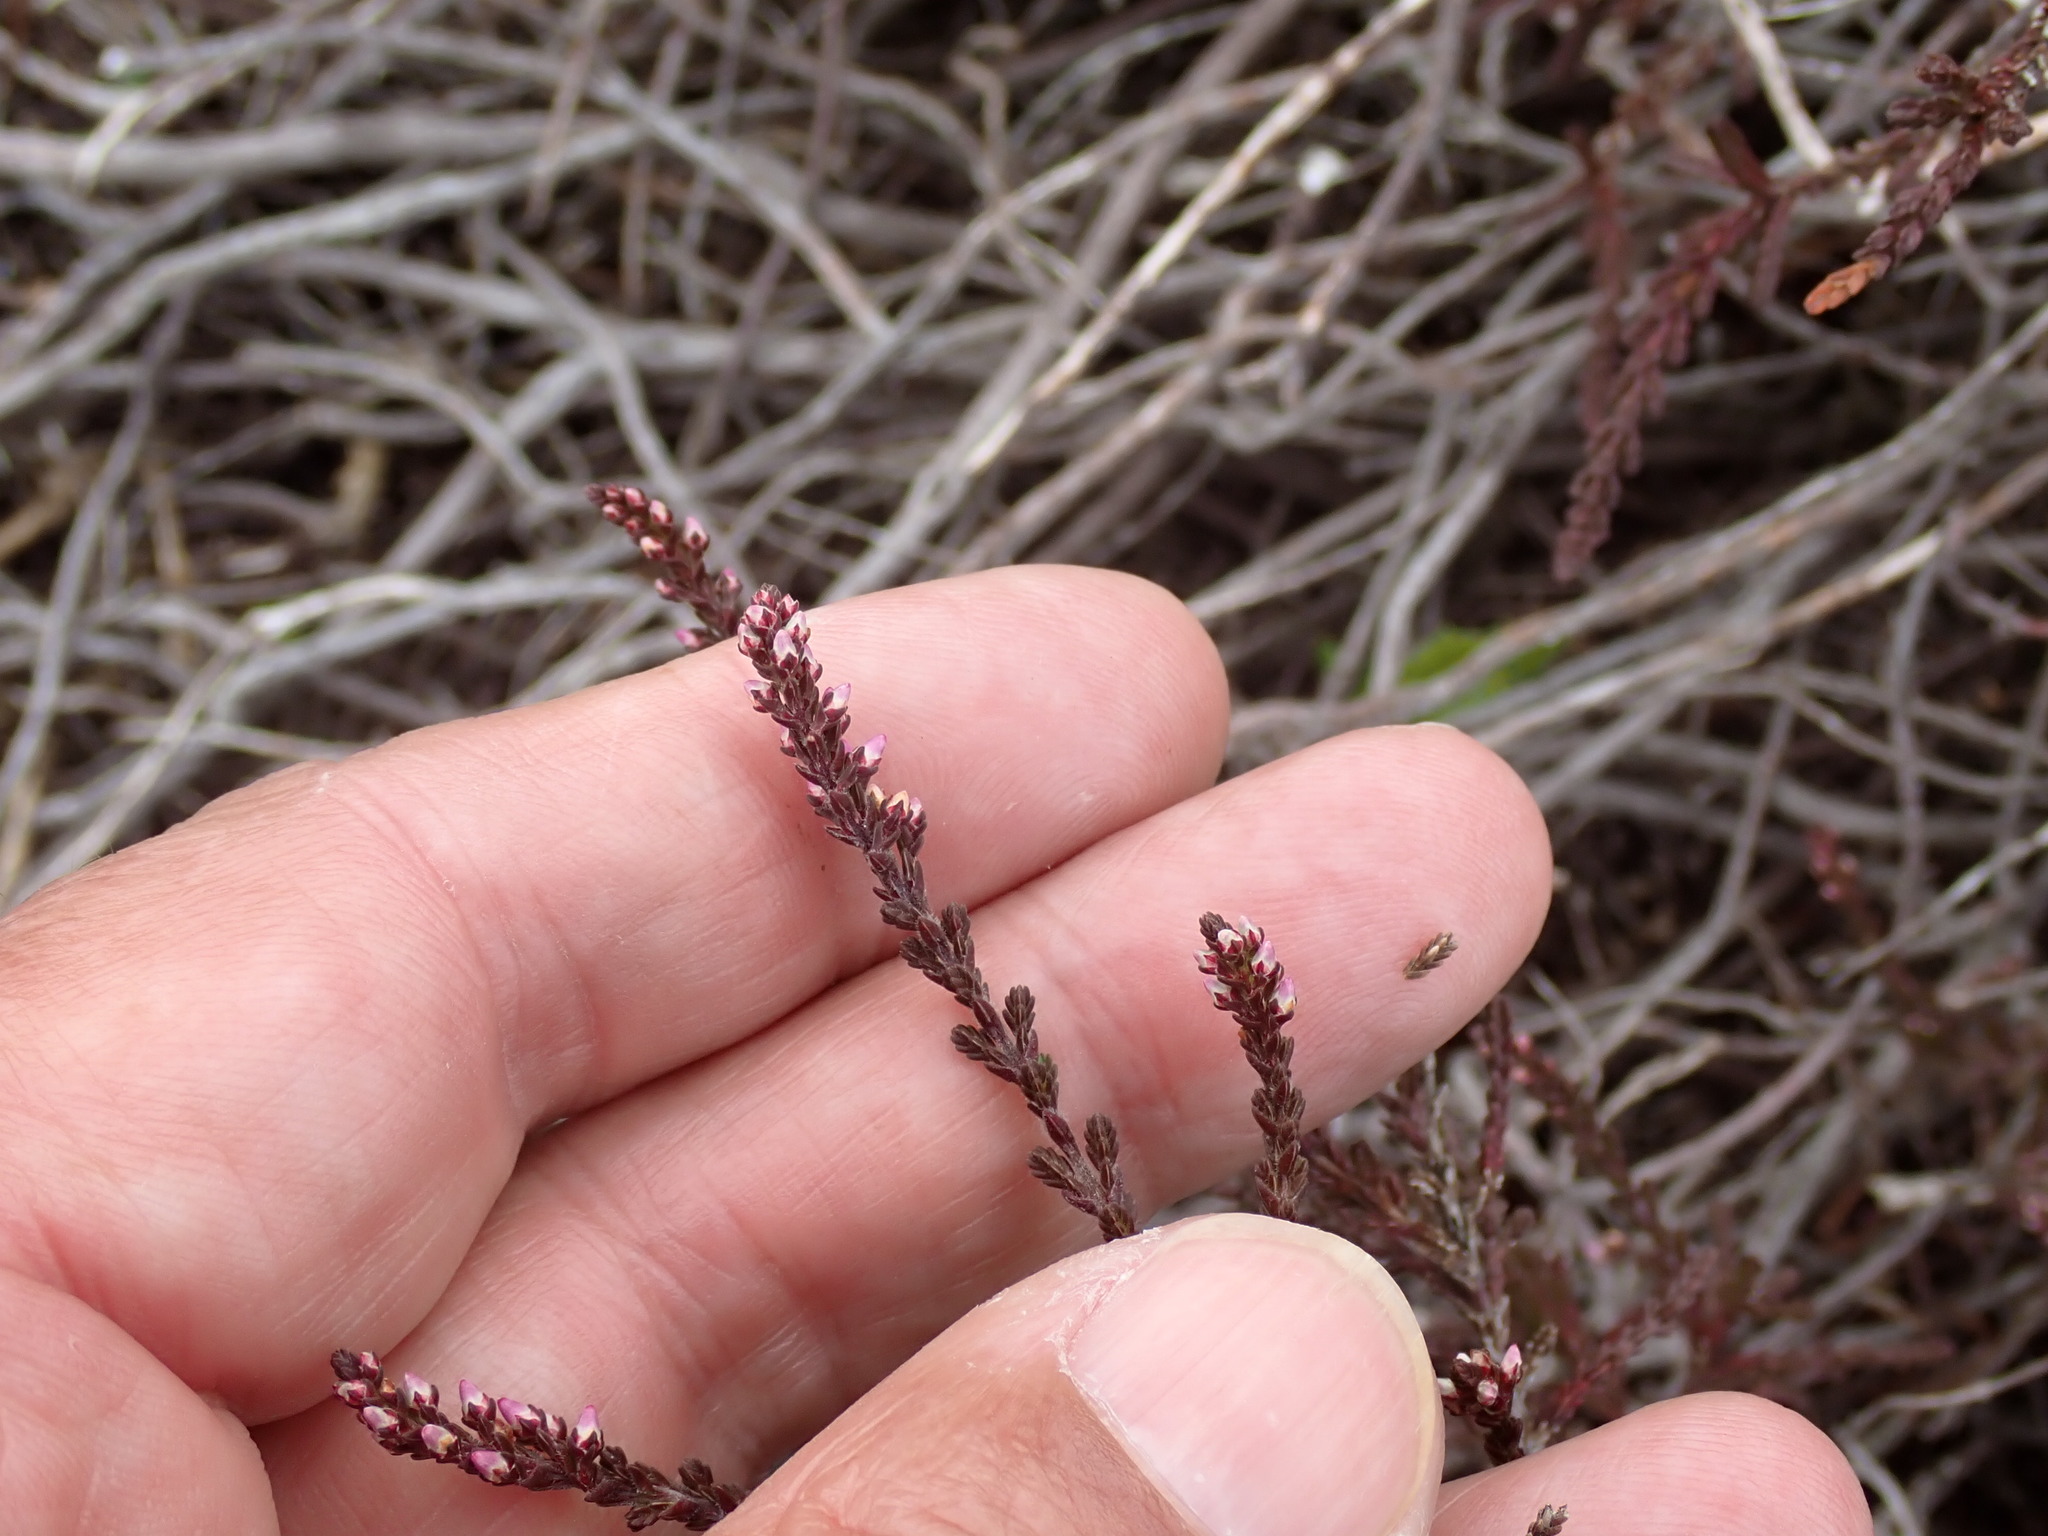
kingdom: Plantae
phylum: Tracheophyta
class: Magnoliopsida
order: Ericales
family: Ericaceae
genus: Calluna
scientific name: Calluna vulgaris
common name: Heather
